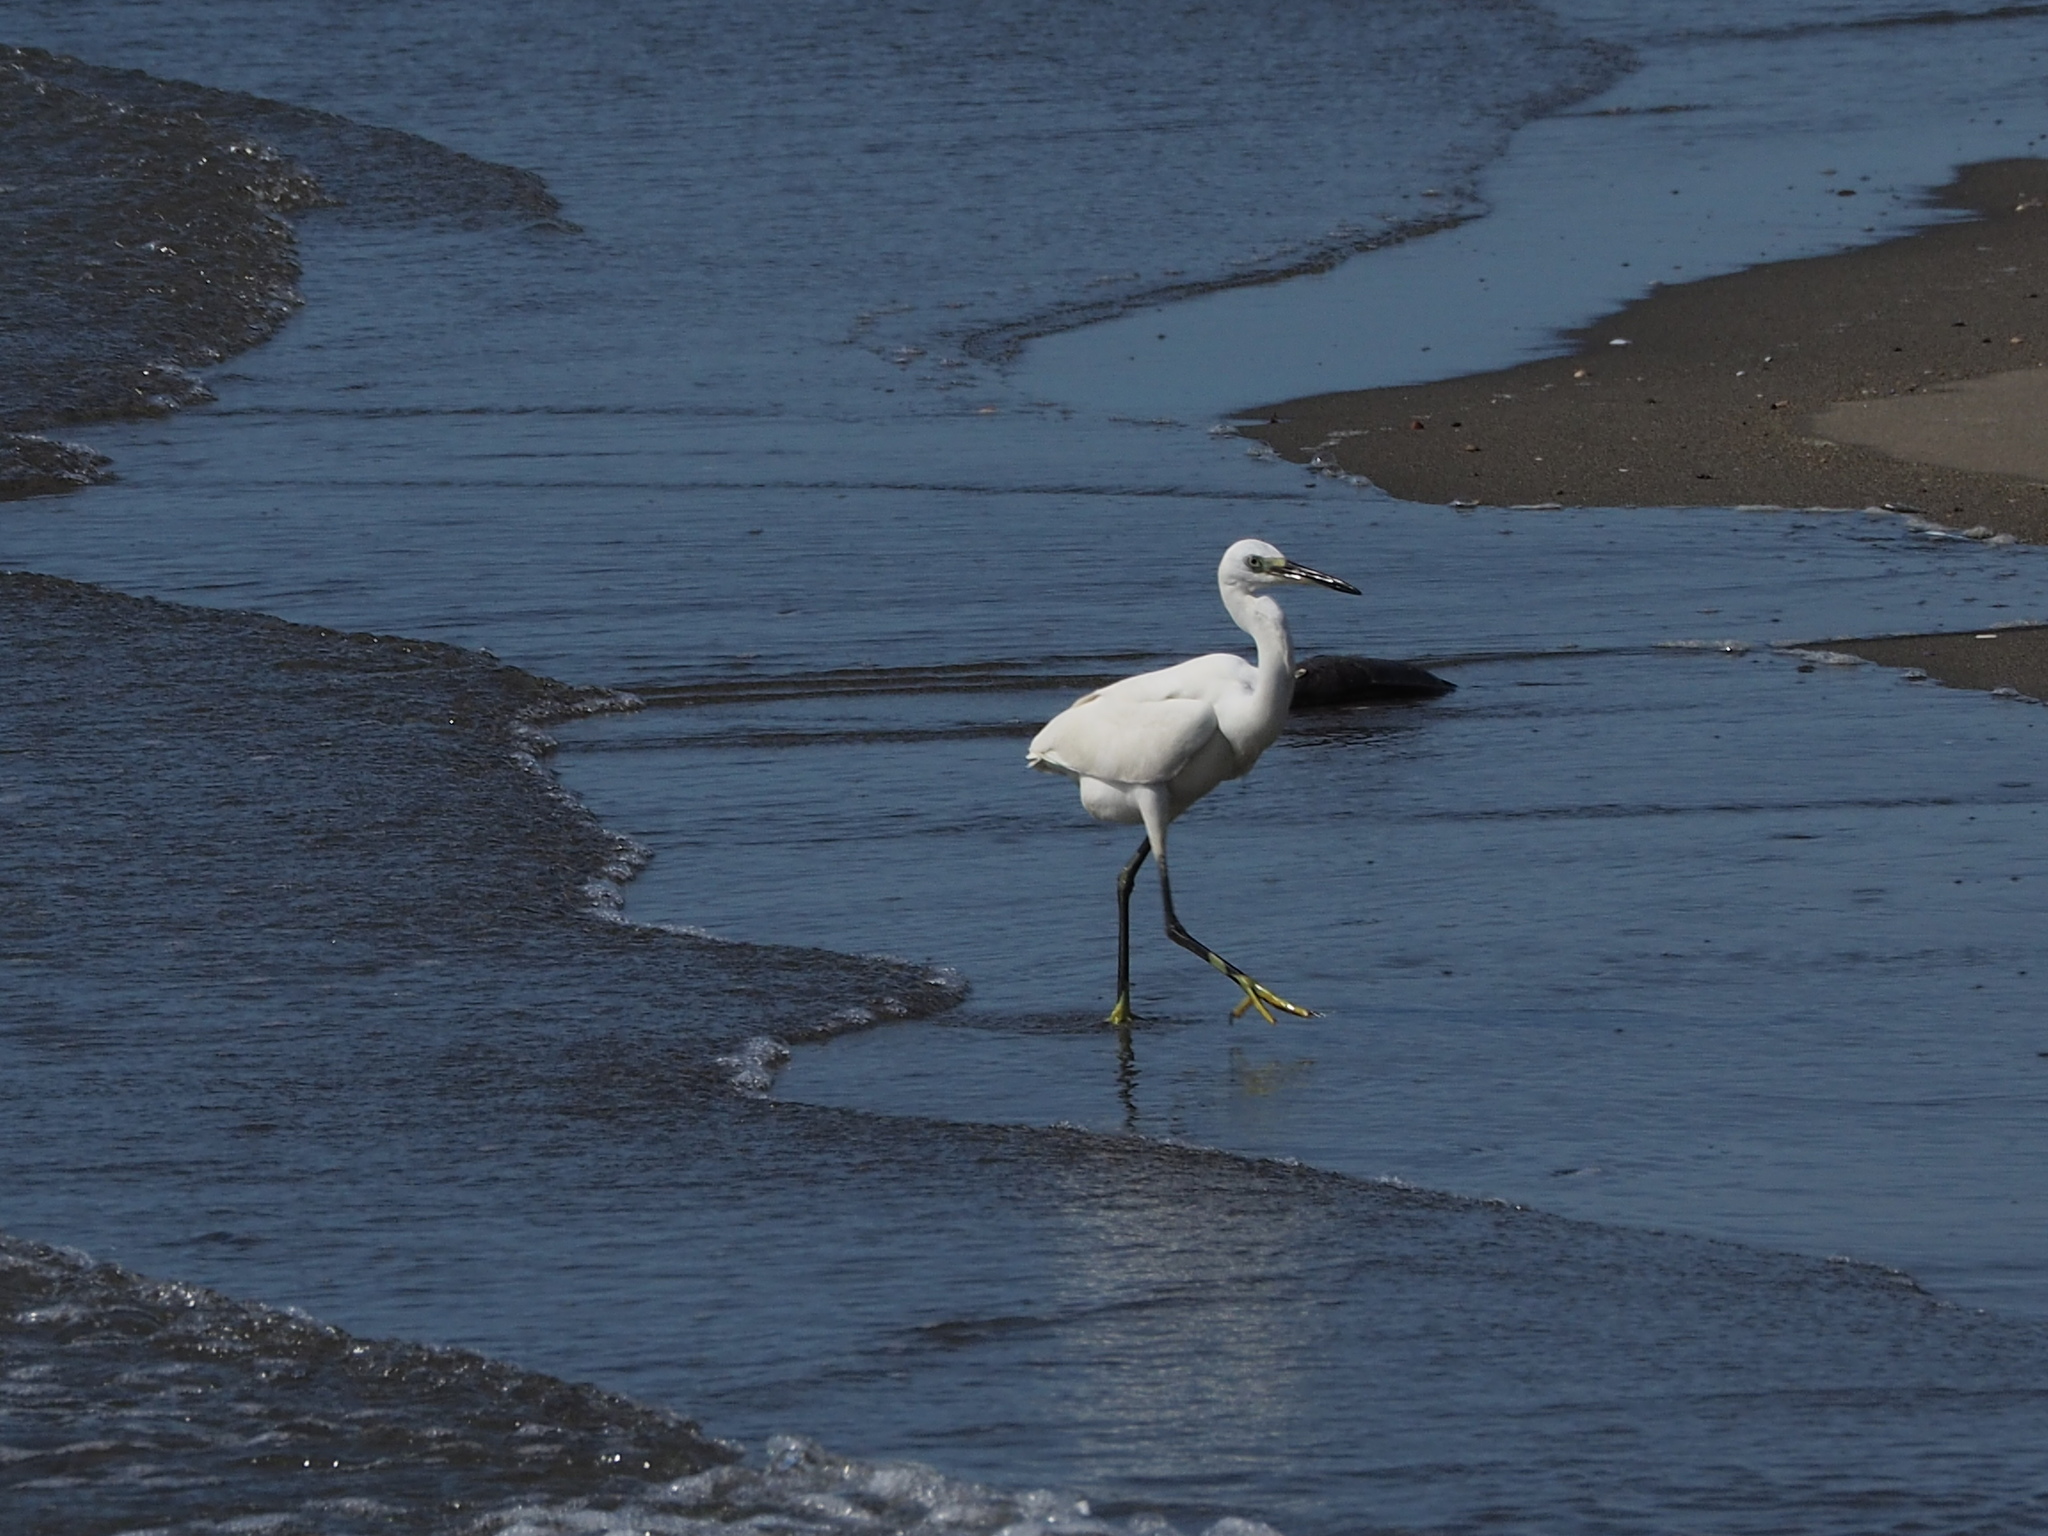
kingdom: Animalia
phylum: Chordata
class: Aves
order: Pelecaniformes
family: Ardeidae
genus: Egretta
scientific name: Egretta garzetta
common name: Little egret
